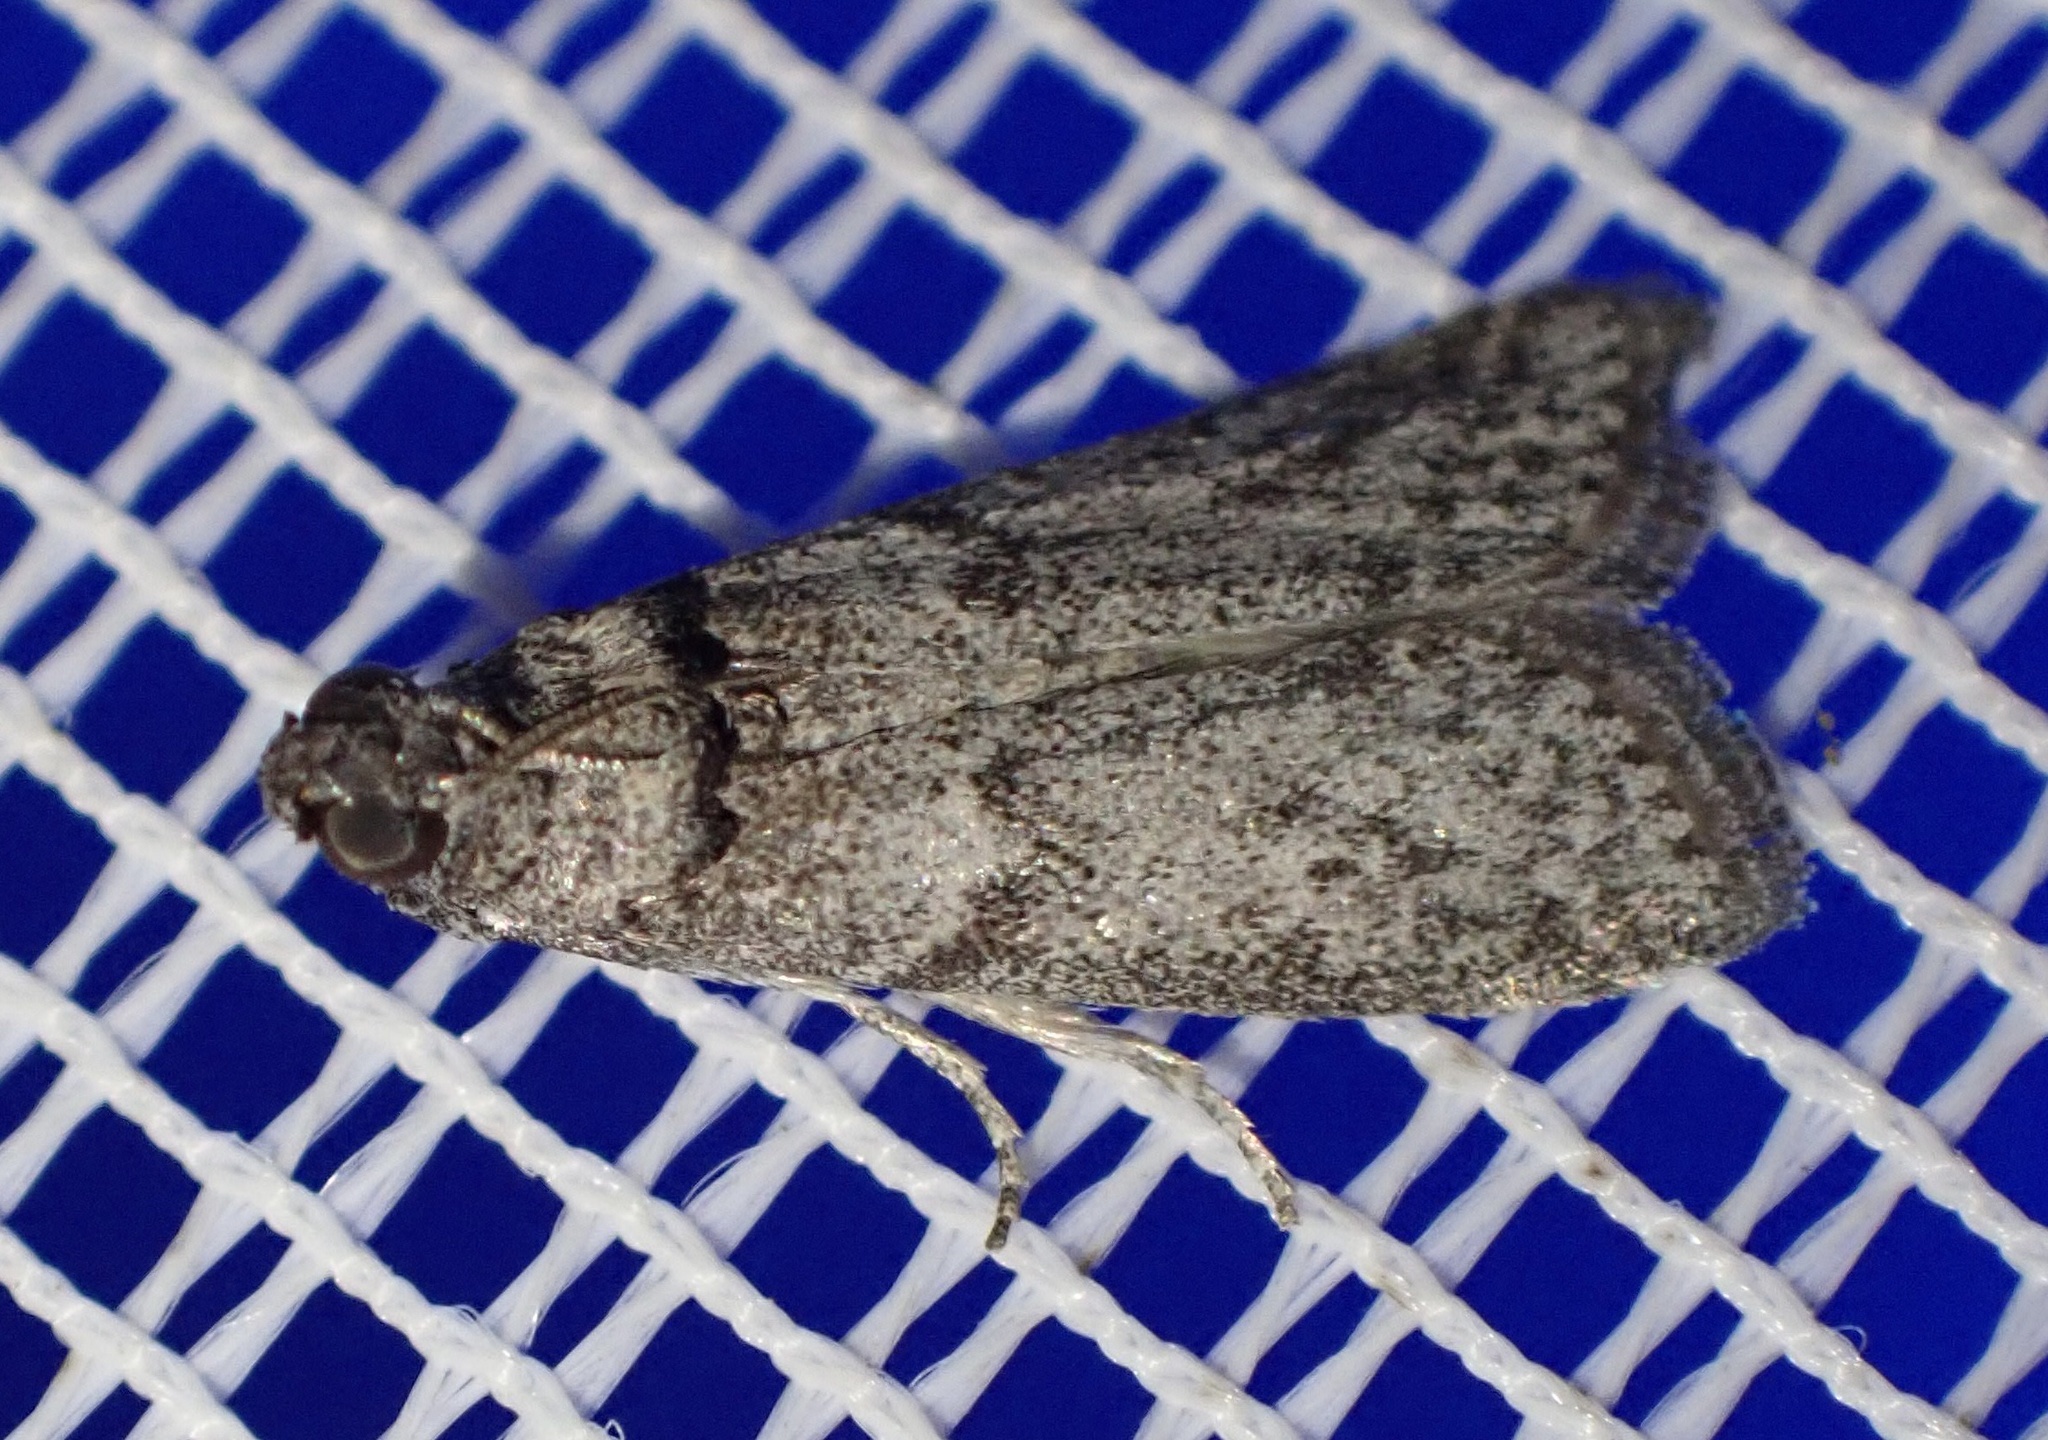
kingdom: Animalia
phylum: Arthropoda
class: Insecta
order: Lepidoptera
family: Pyralidae
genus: Ectomyelois
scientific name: Ectomyelois ceratoniae
